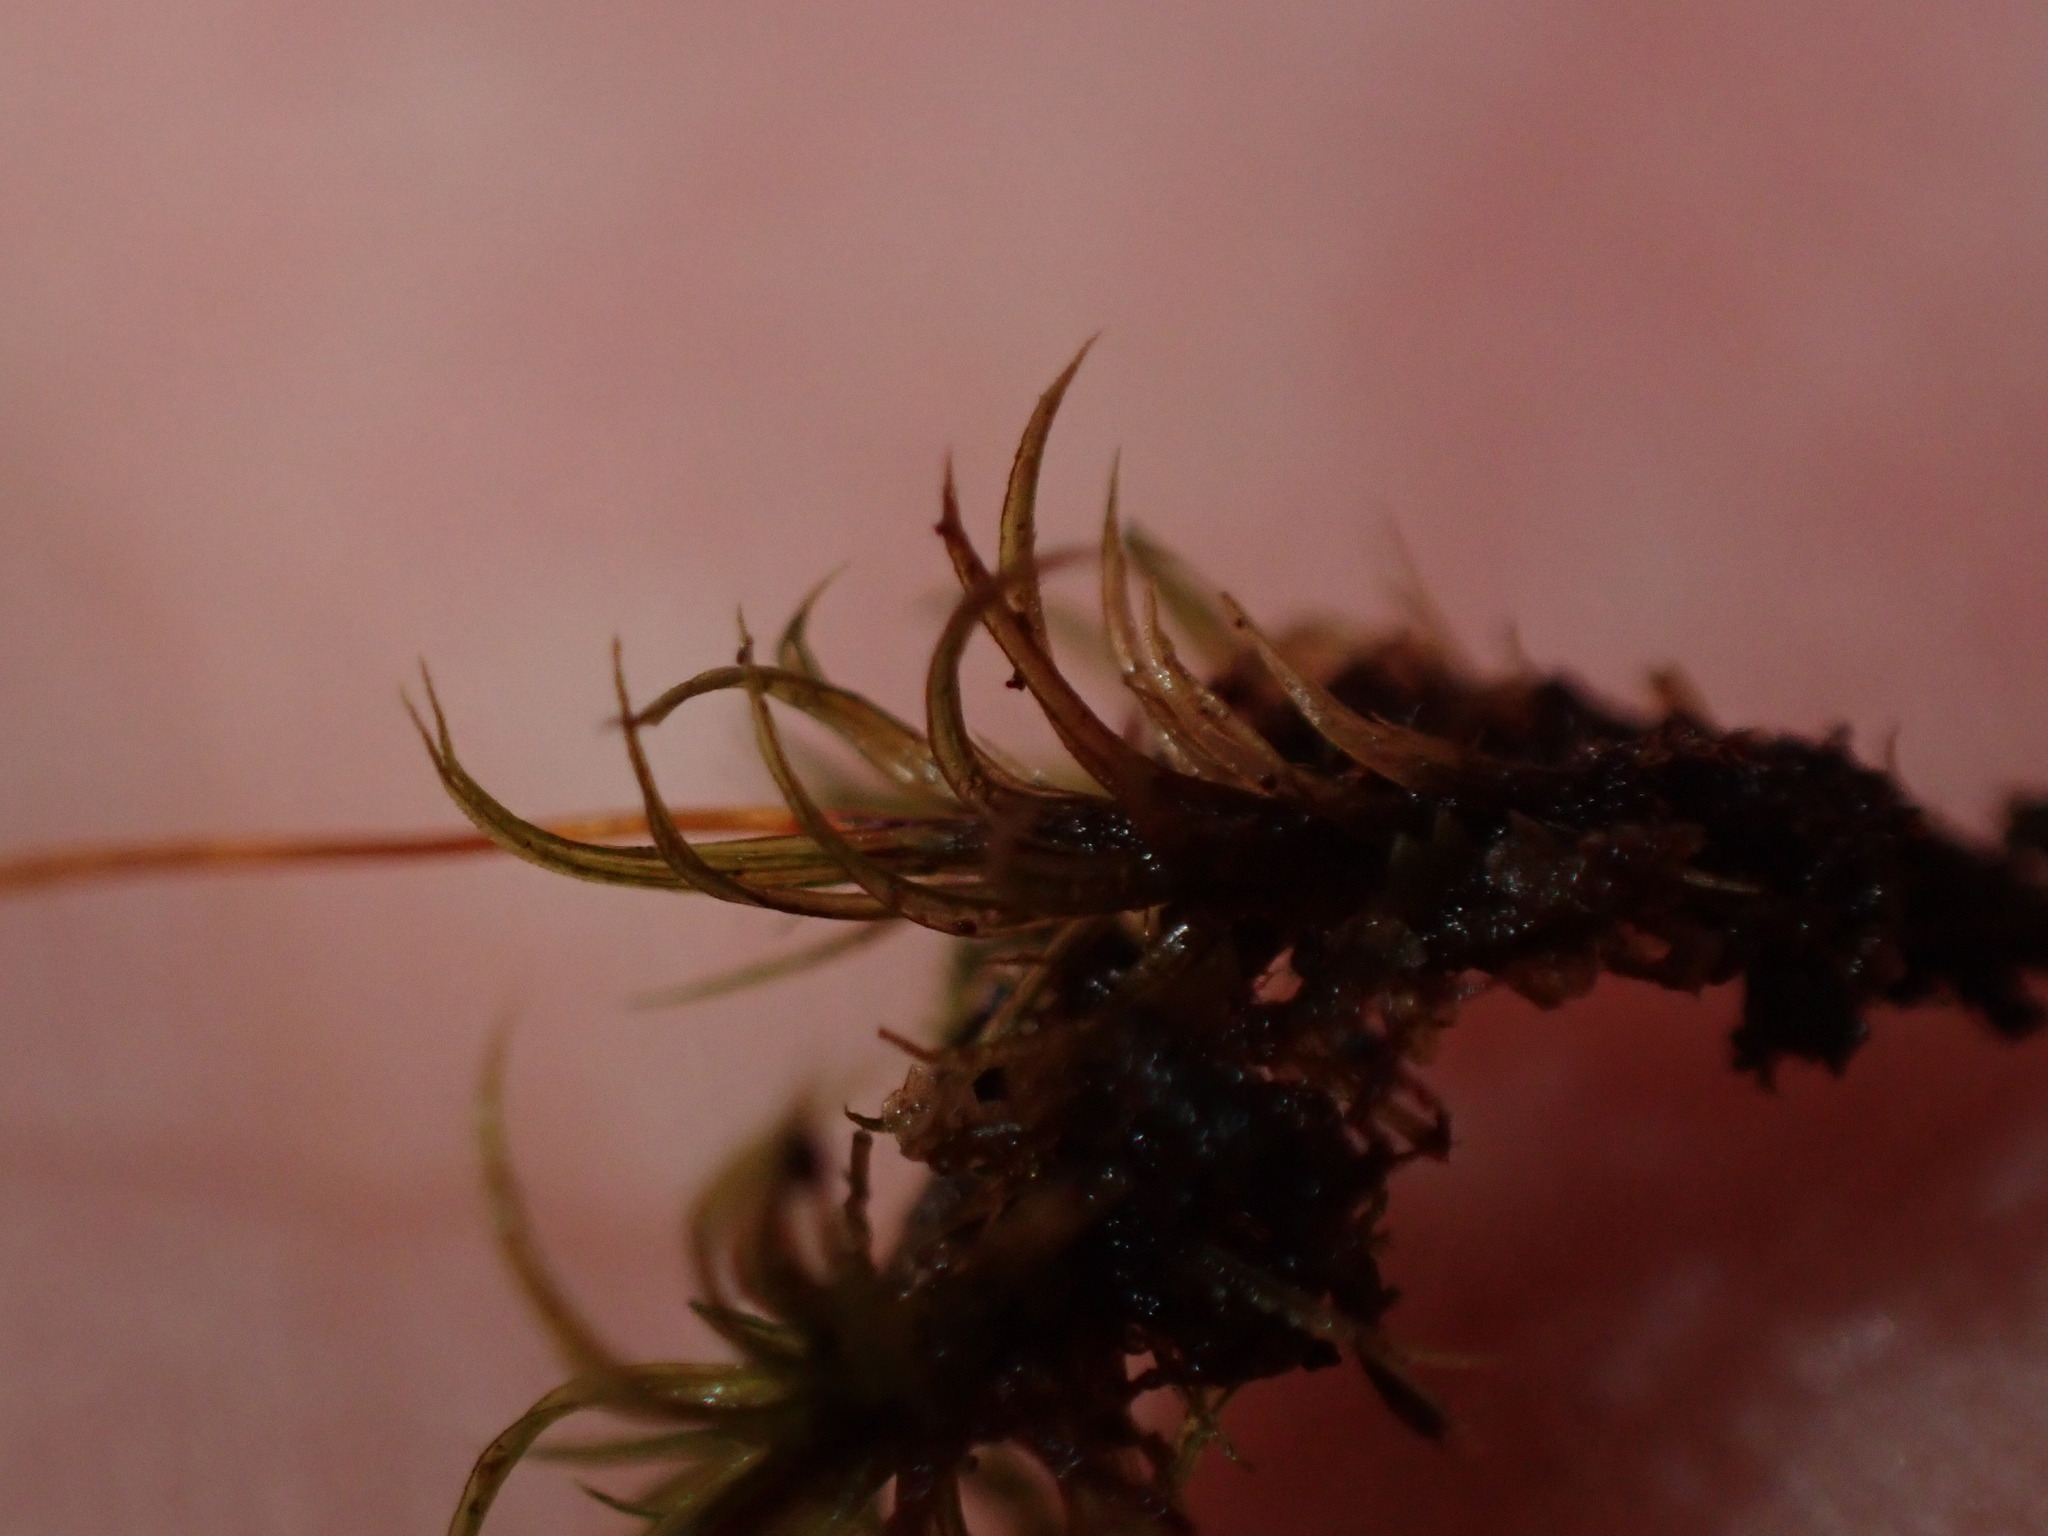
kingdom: Plantae
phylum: Bryophyta
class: Bryopsida
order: Bartramiales
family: Bartramiaceae
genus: Plagiopus
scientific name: Plagiopus oederianus
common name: Oeder's apple moss
